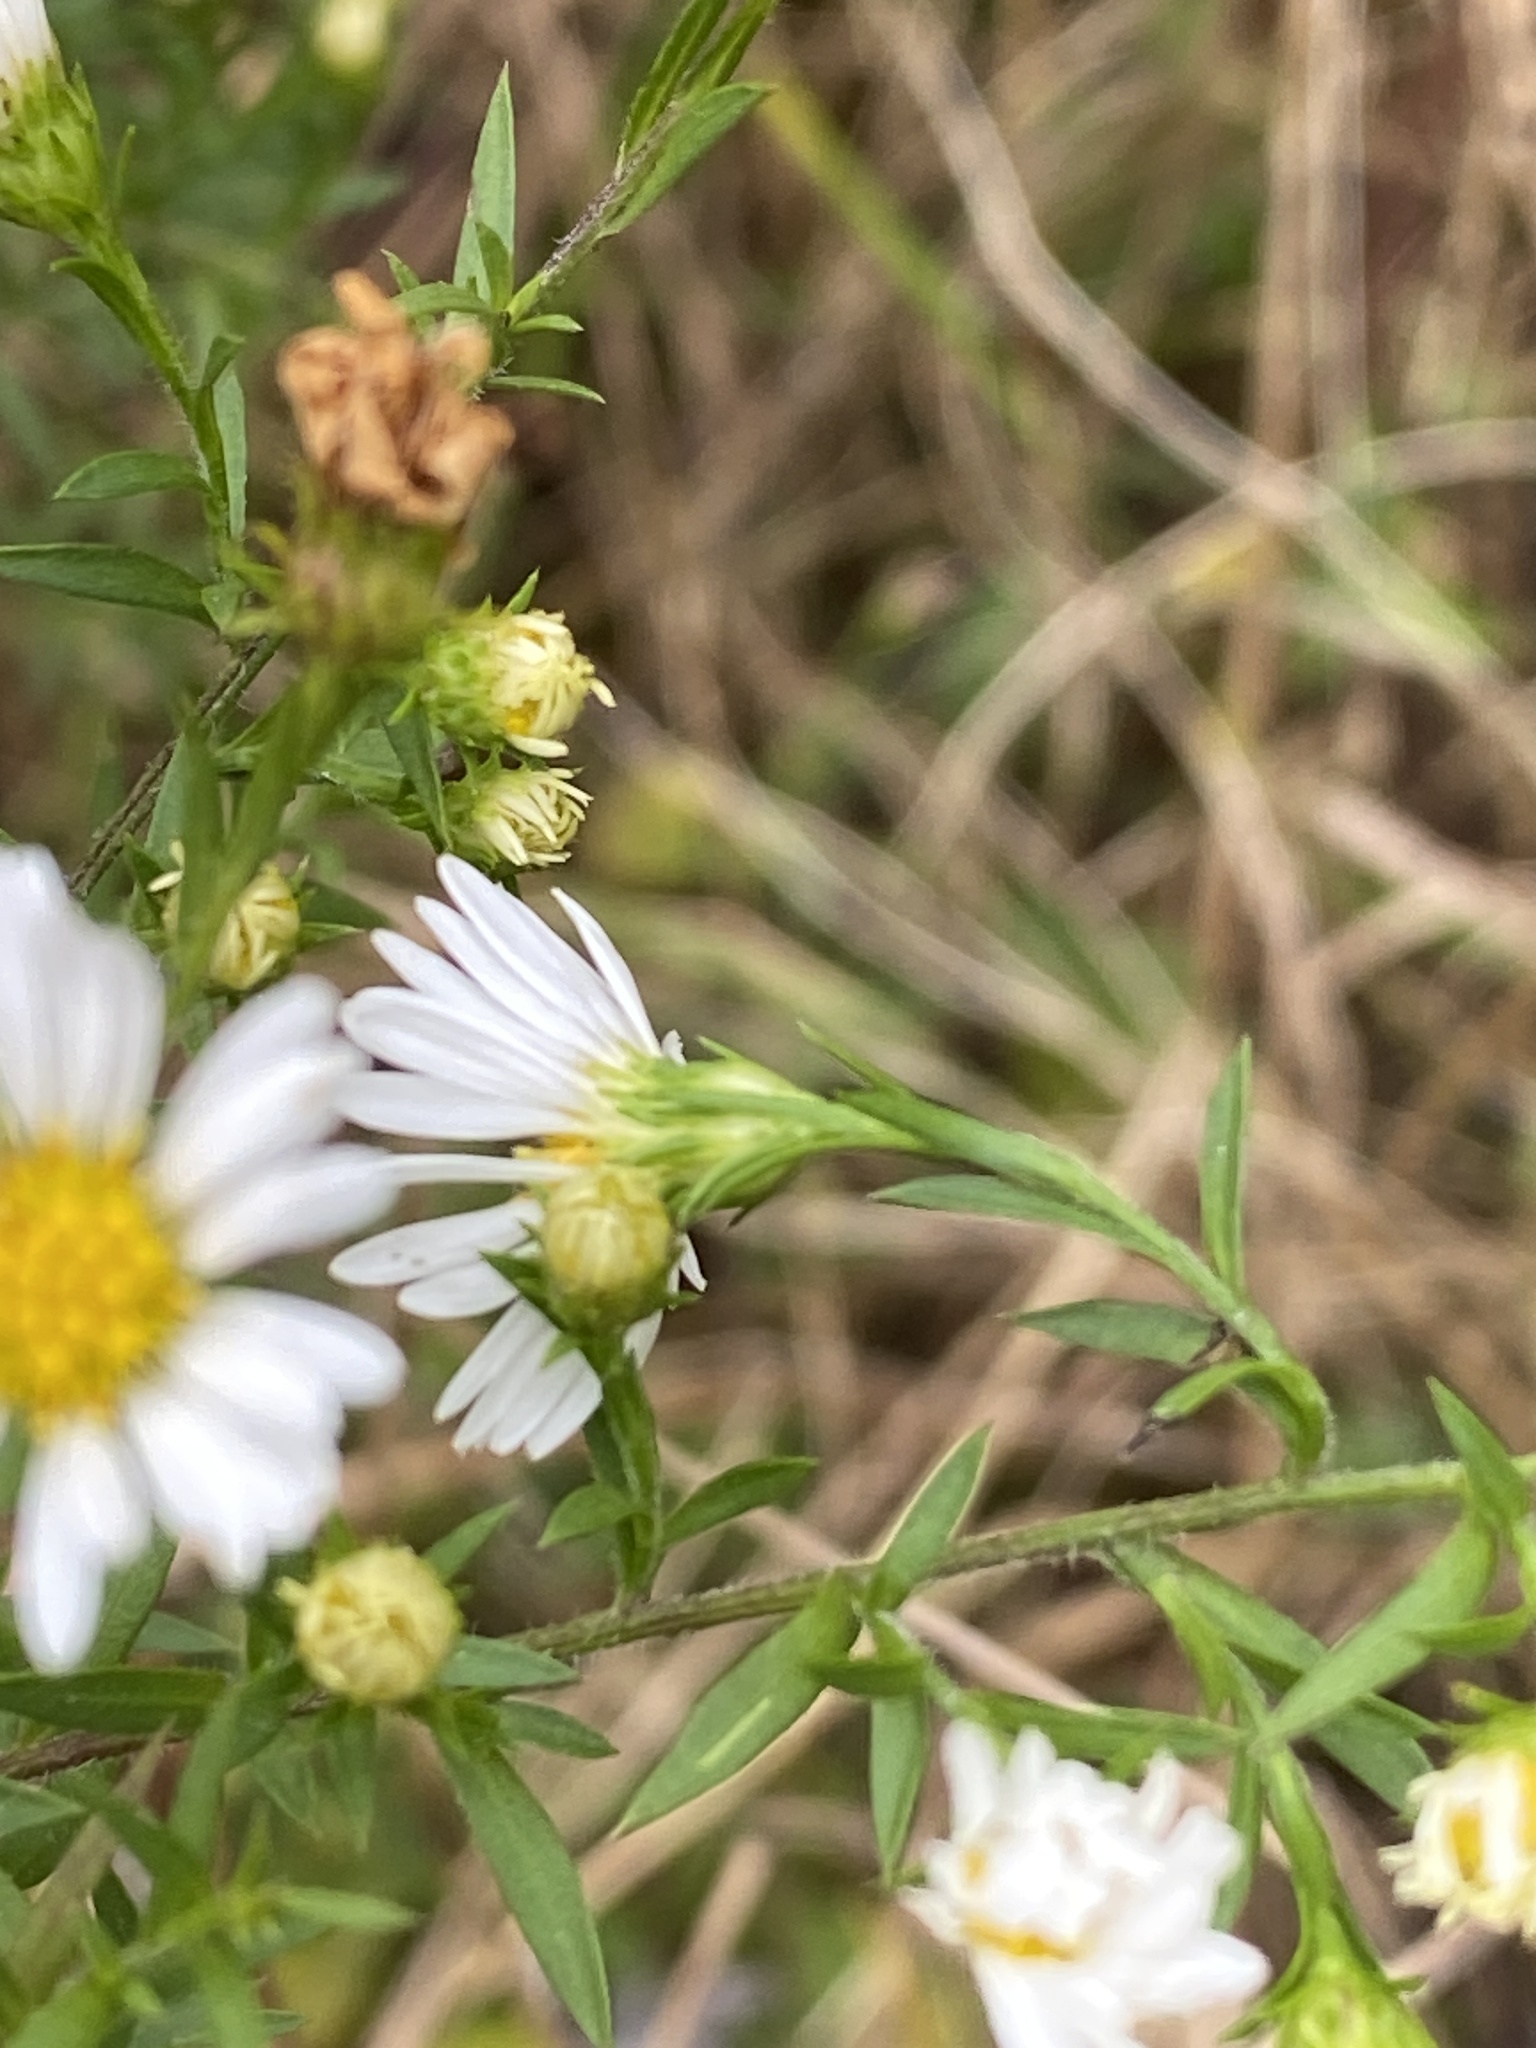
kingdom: Plantae
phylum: Tracheophyta
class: Magnoliopsida
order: Asterales
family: Asteraceae
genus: Symphyotrichum
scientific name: Symphyotrichum pilosum
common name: Awl aster
